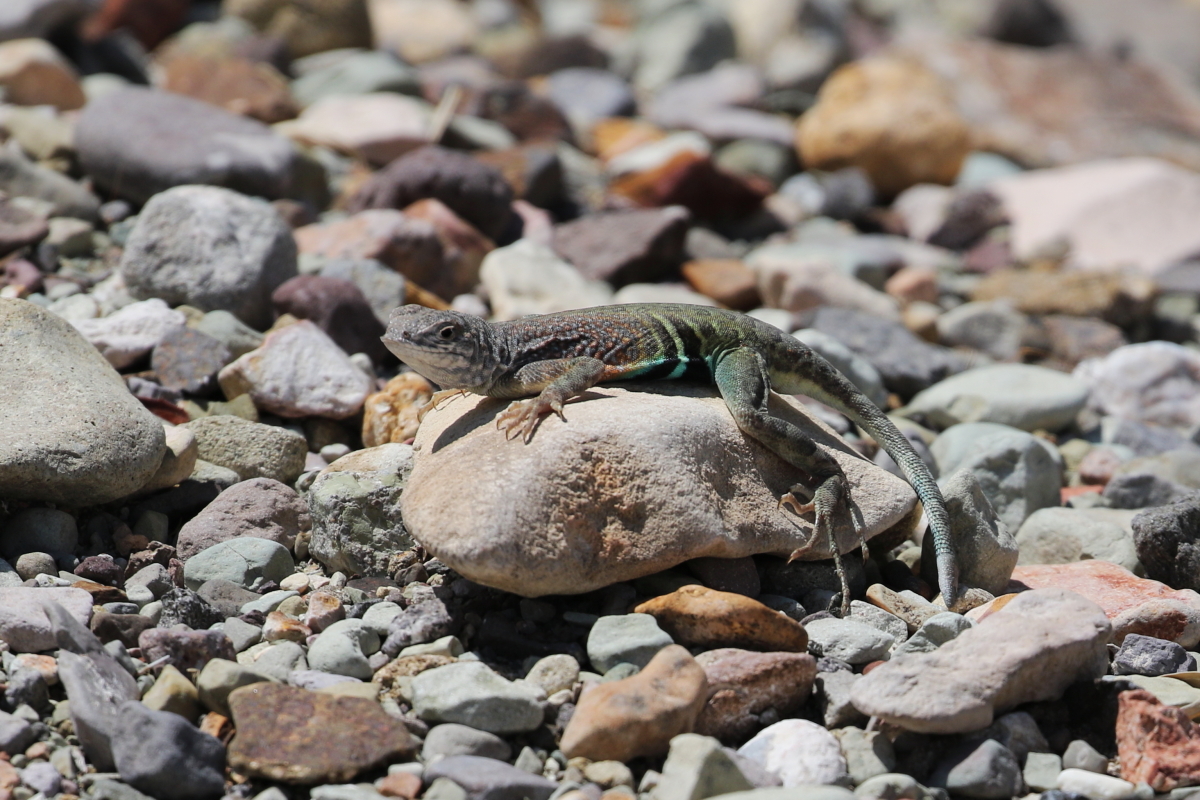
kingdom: Animalia
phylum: Chordata
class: Squamata
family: Phrynosomatidae
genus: Cophosaurus
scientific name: Cophosaurus texanus
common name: Greater earless lizard
